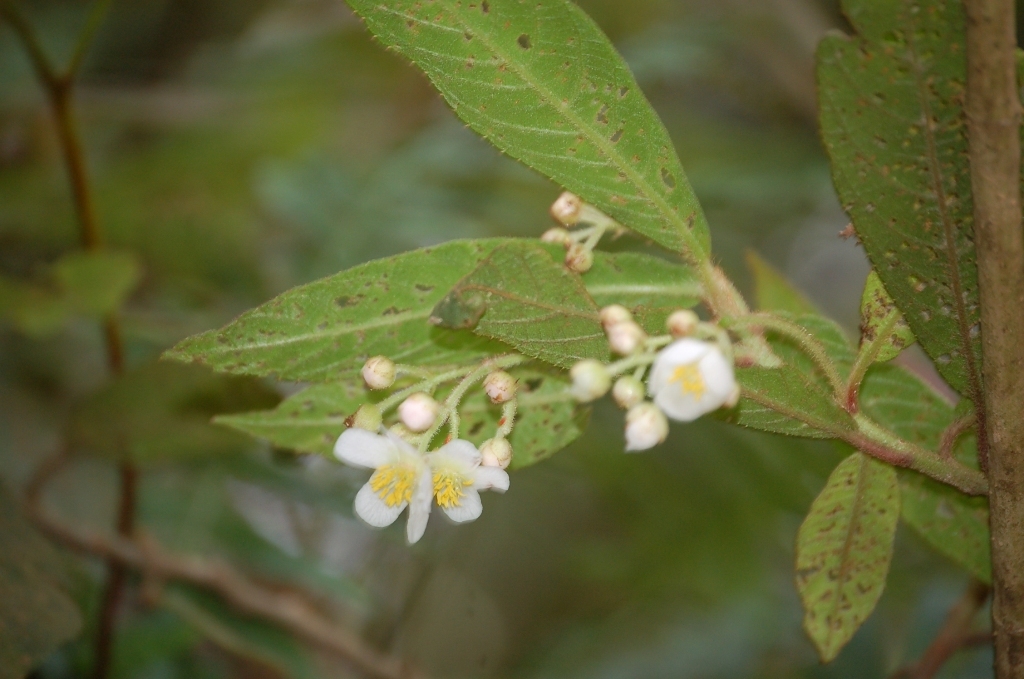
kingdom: Plantae
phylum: Tracheophyta
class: Magnoliopsida
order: Ericales
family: Actinidiaceae
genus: Saurauia
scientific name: Saurauia oreophila
